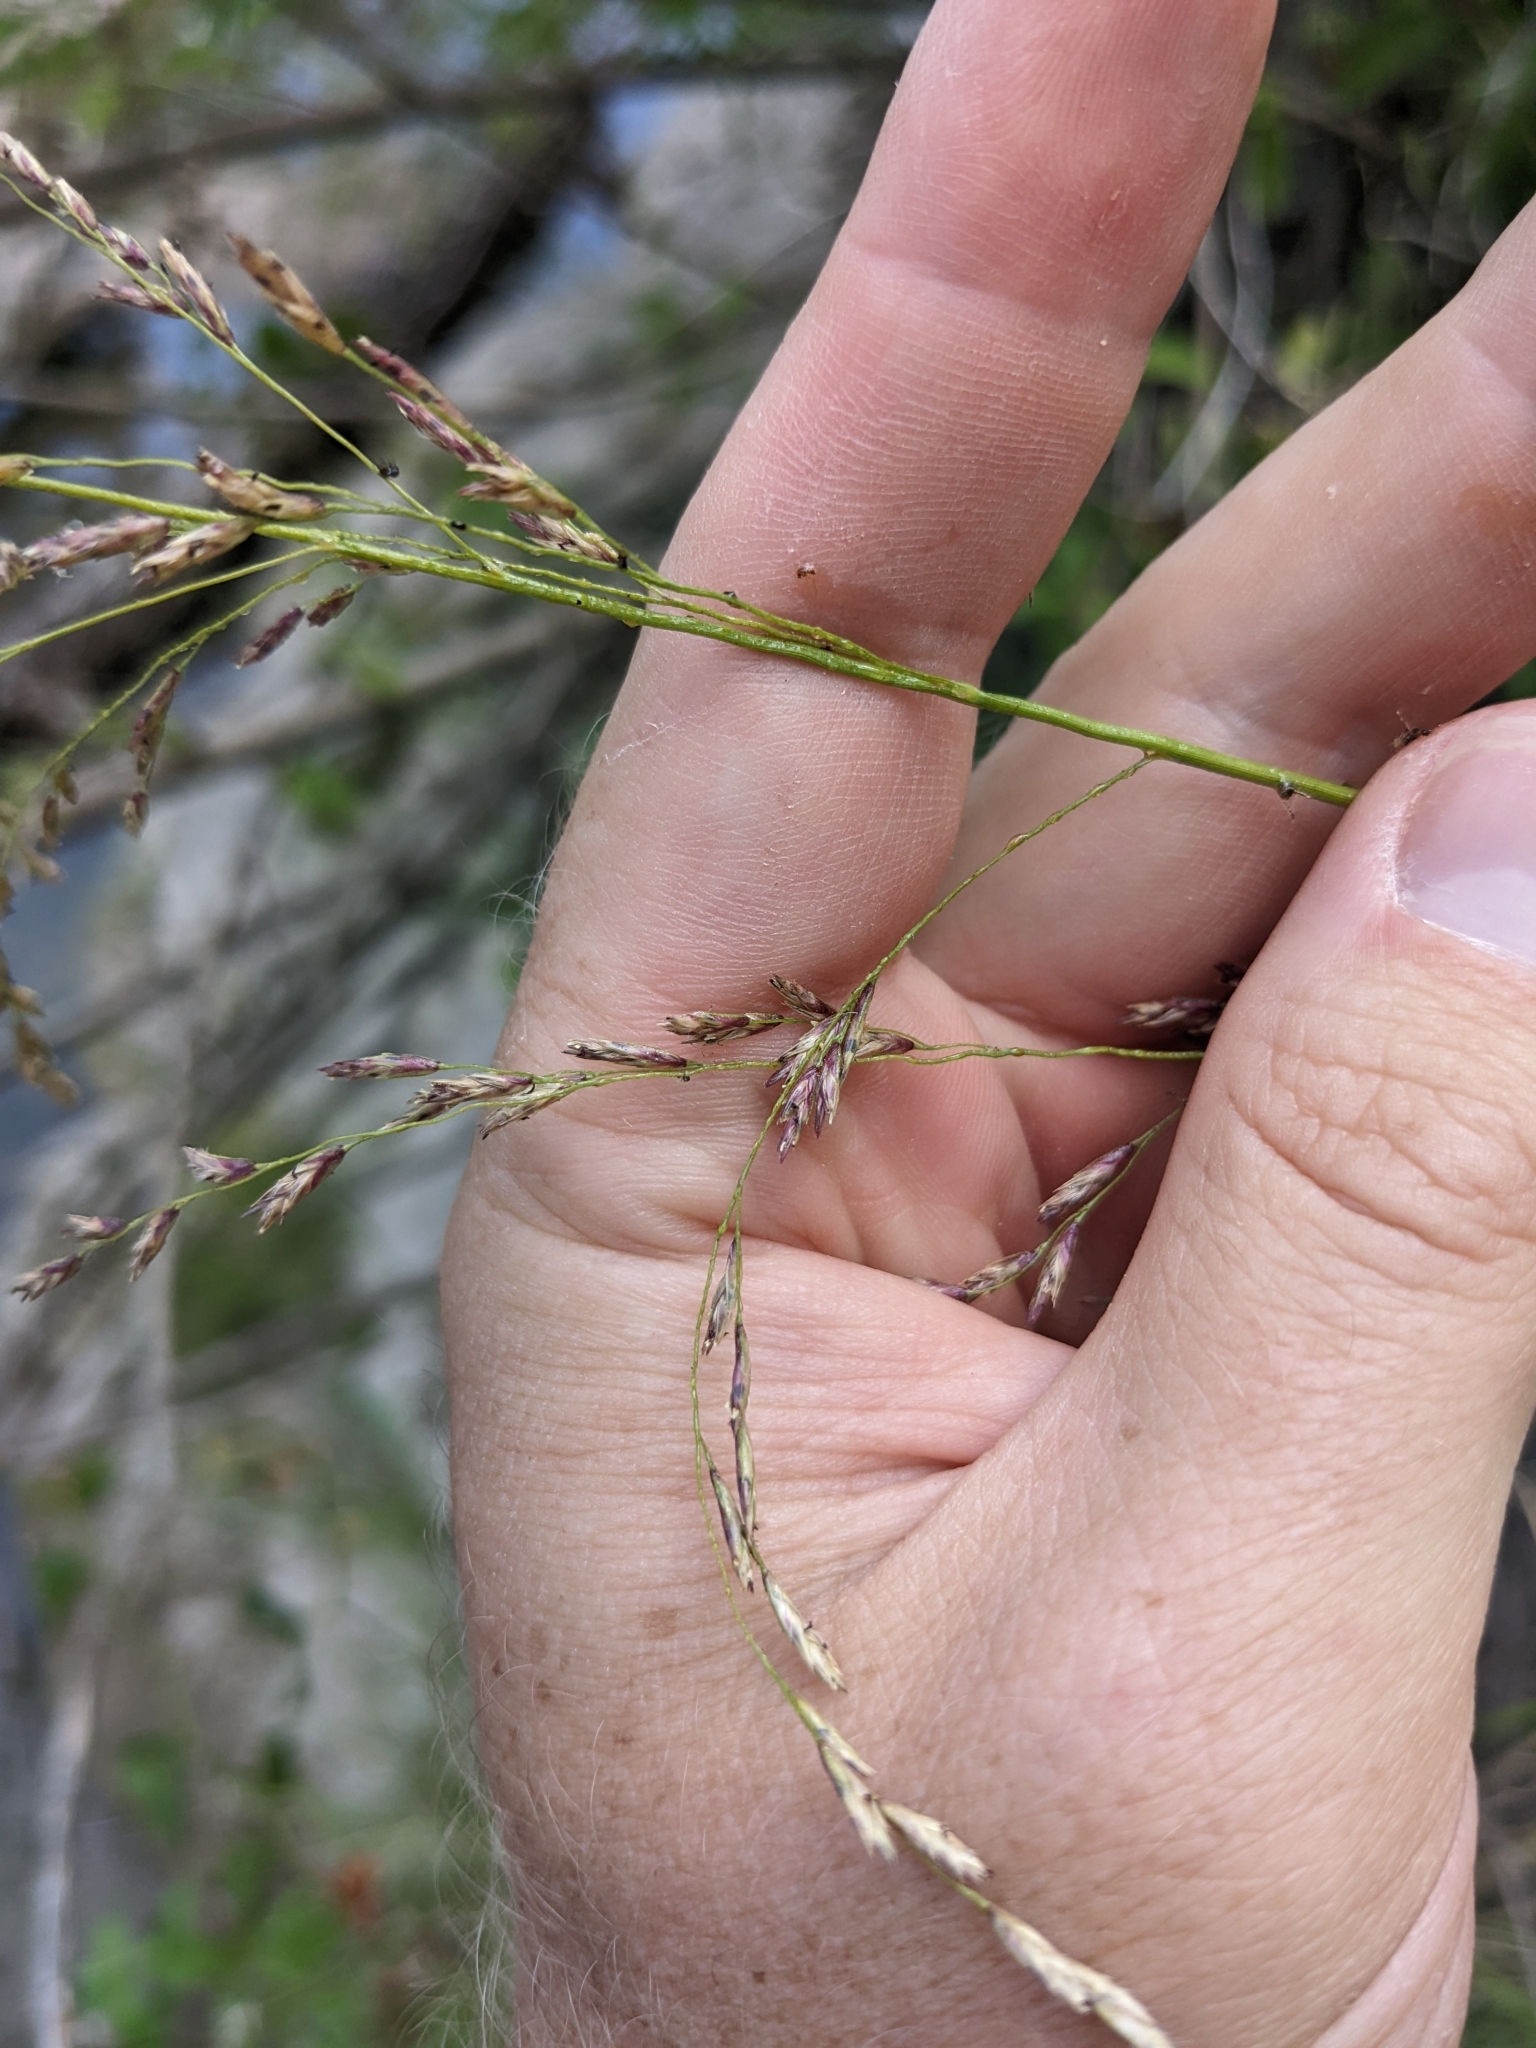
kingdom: Plantae
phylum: Tracheophyta
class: Liliopsida
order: Poales
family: Poaceae
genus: Tridens
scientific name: Tridens flavus
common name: Purpletop
